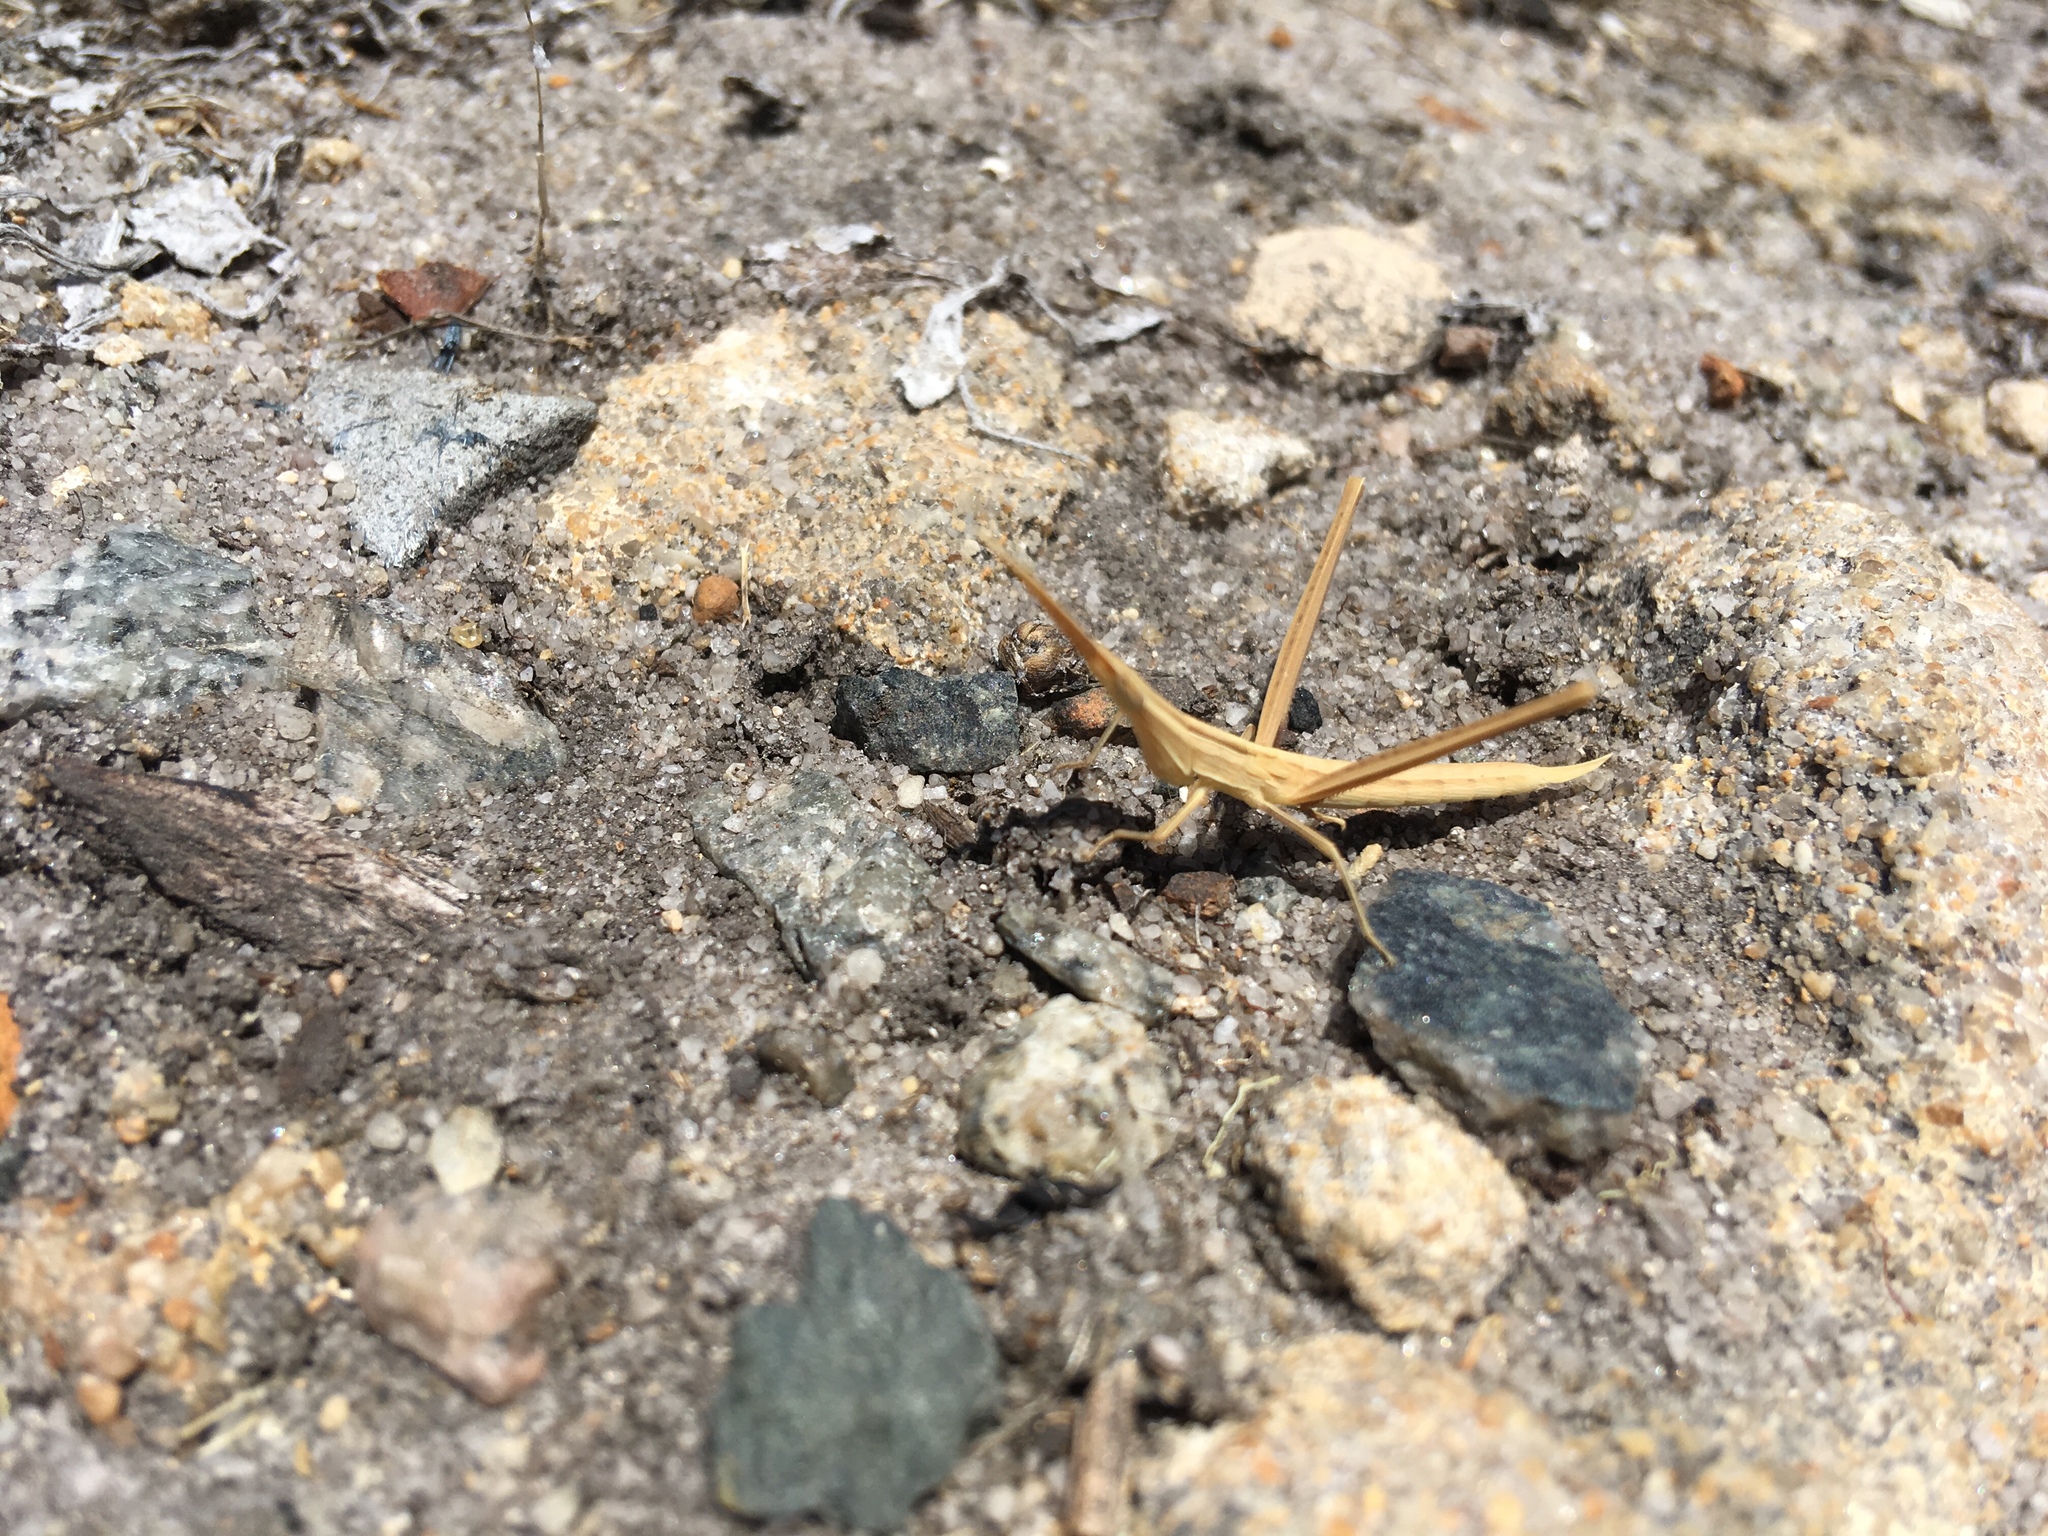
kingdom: Animalia
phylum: Arthropoda
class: Insecta
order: Orthoptera
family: Acrididae
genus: Acrida
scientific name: Acrida conica
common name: Giant green slantface
